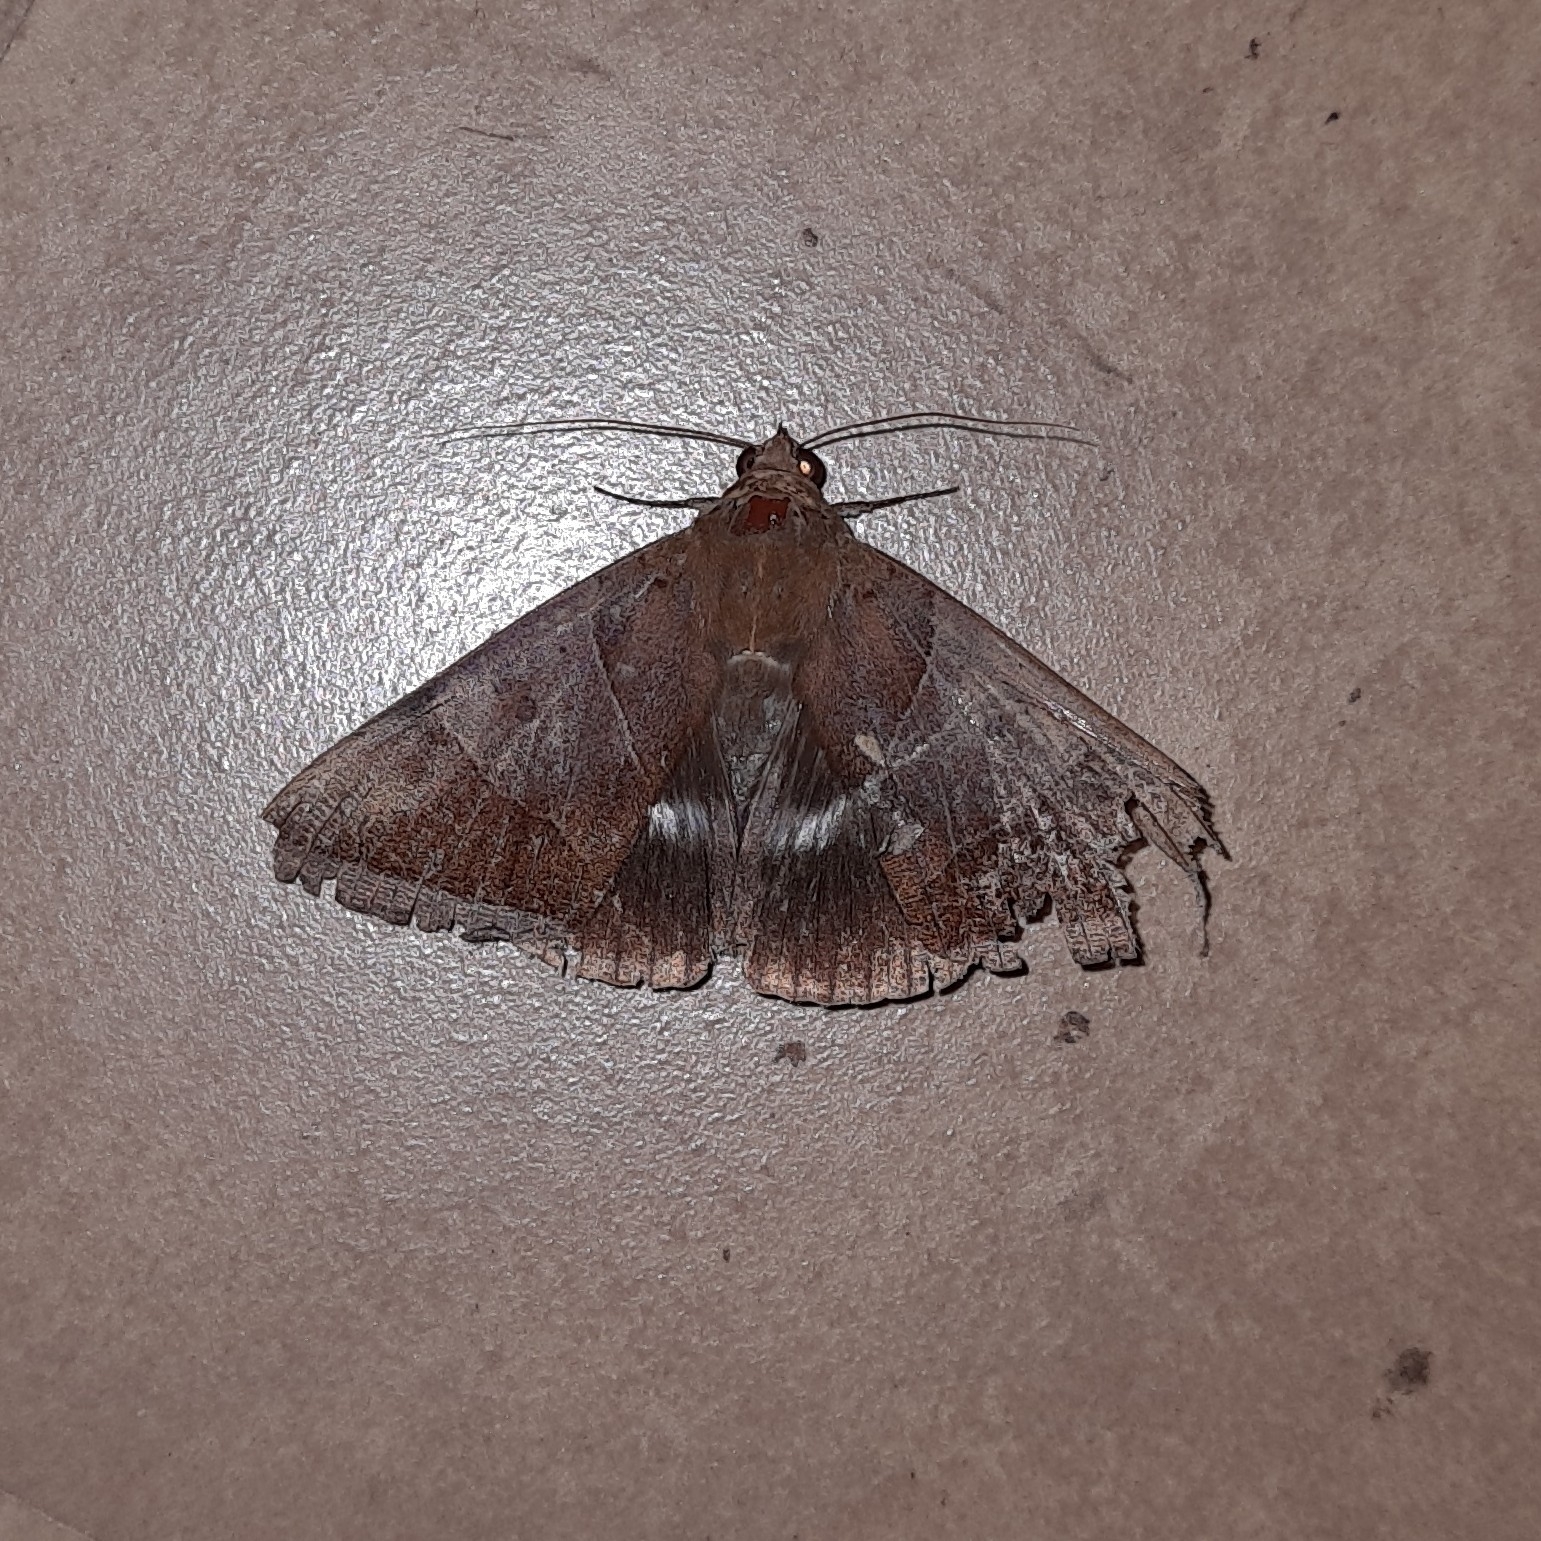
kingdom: Animalia
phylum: Arthropoda
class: Insecta
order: Lepidoptera
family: Erebidae
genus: Artena
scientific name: Artena dotata
